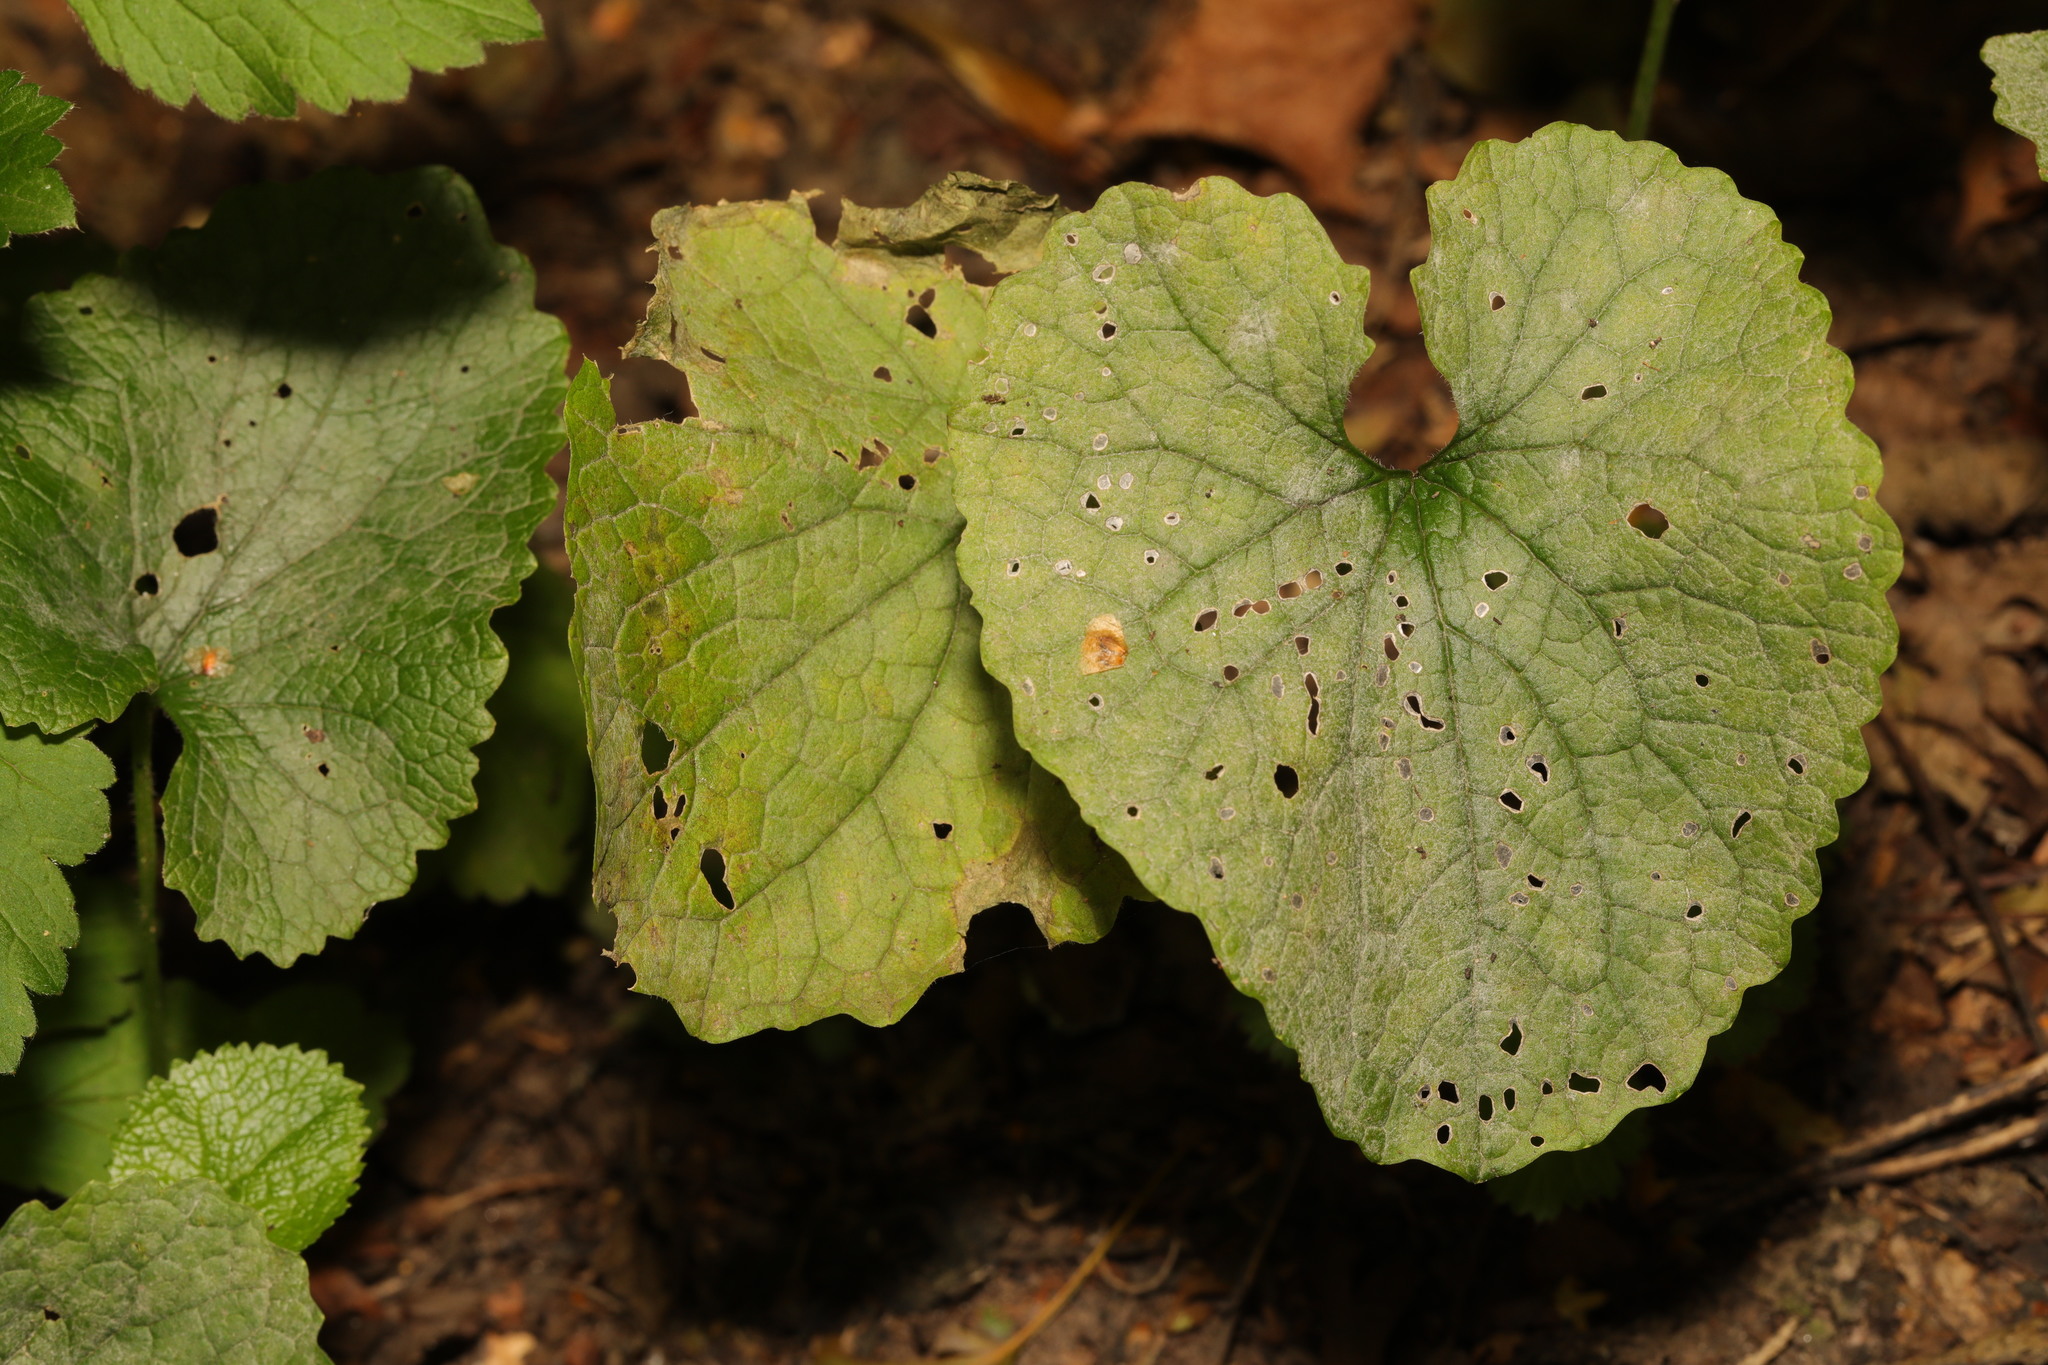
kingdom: Plantae
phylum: Tracheophyta
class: Magnoliopsida
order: Brassicales
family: Brassicaceae
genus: Alliaria
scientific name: Alliaria petiolata
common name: Garlic mustard
